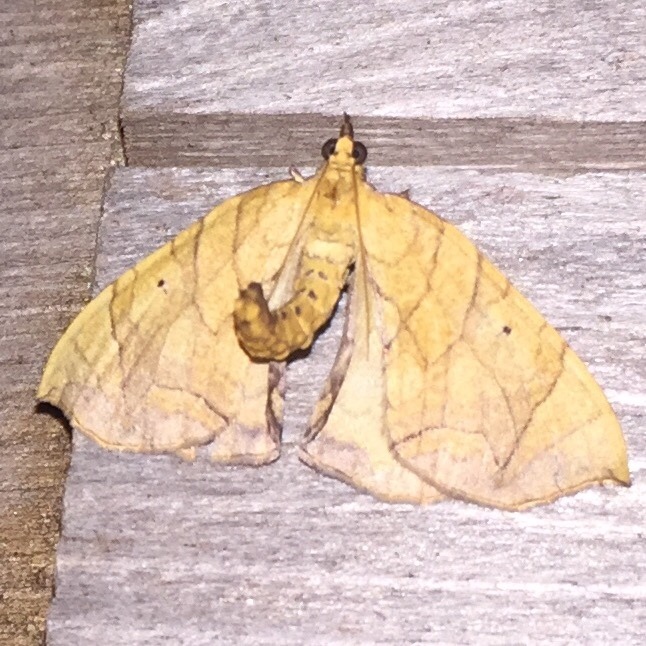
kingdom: Animalia
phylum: Arthropoda
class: Insecta
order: Lepidoptera
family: Geometridae
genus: Eulithis
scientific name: Eulithis
